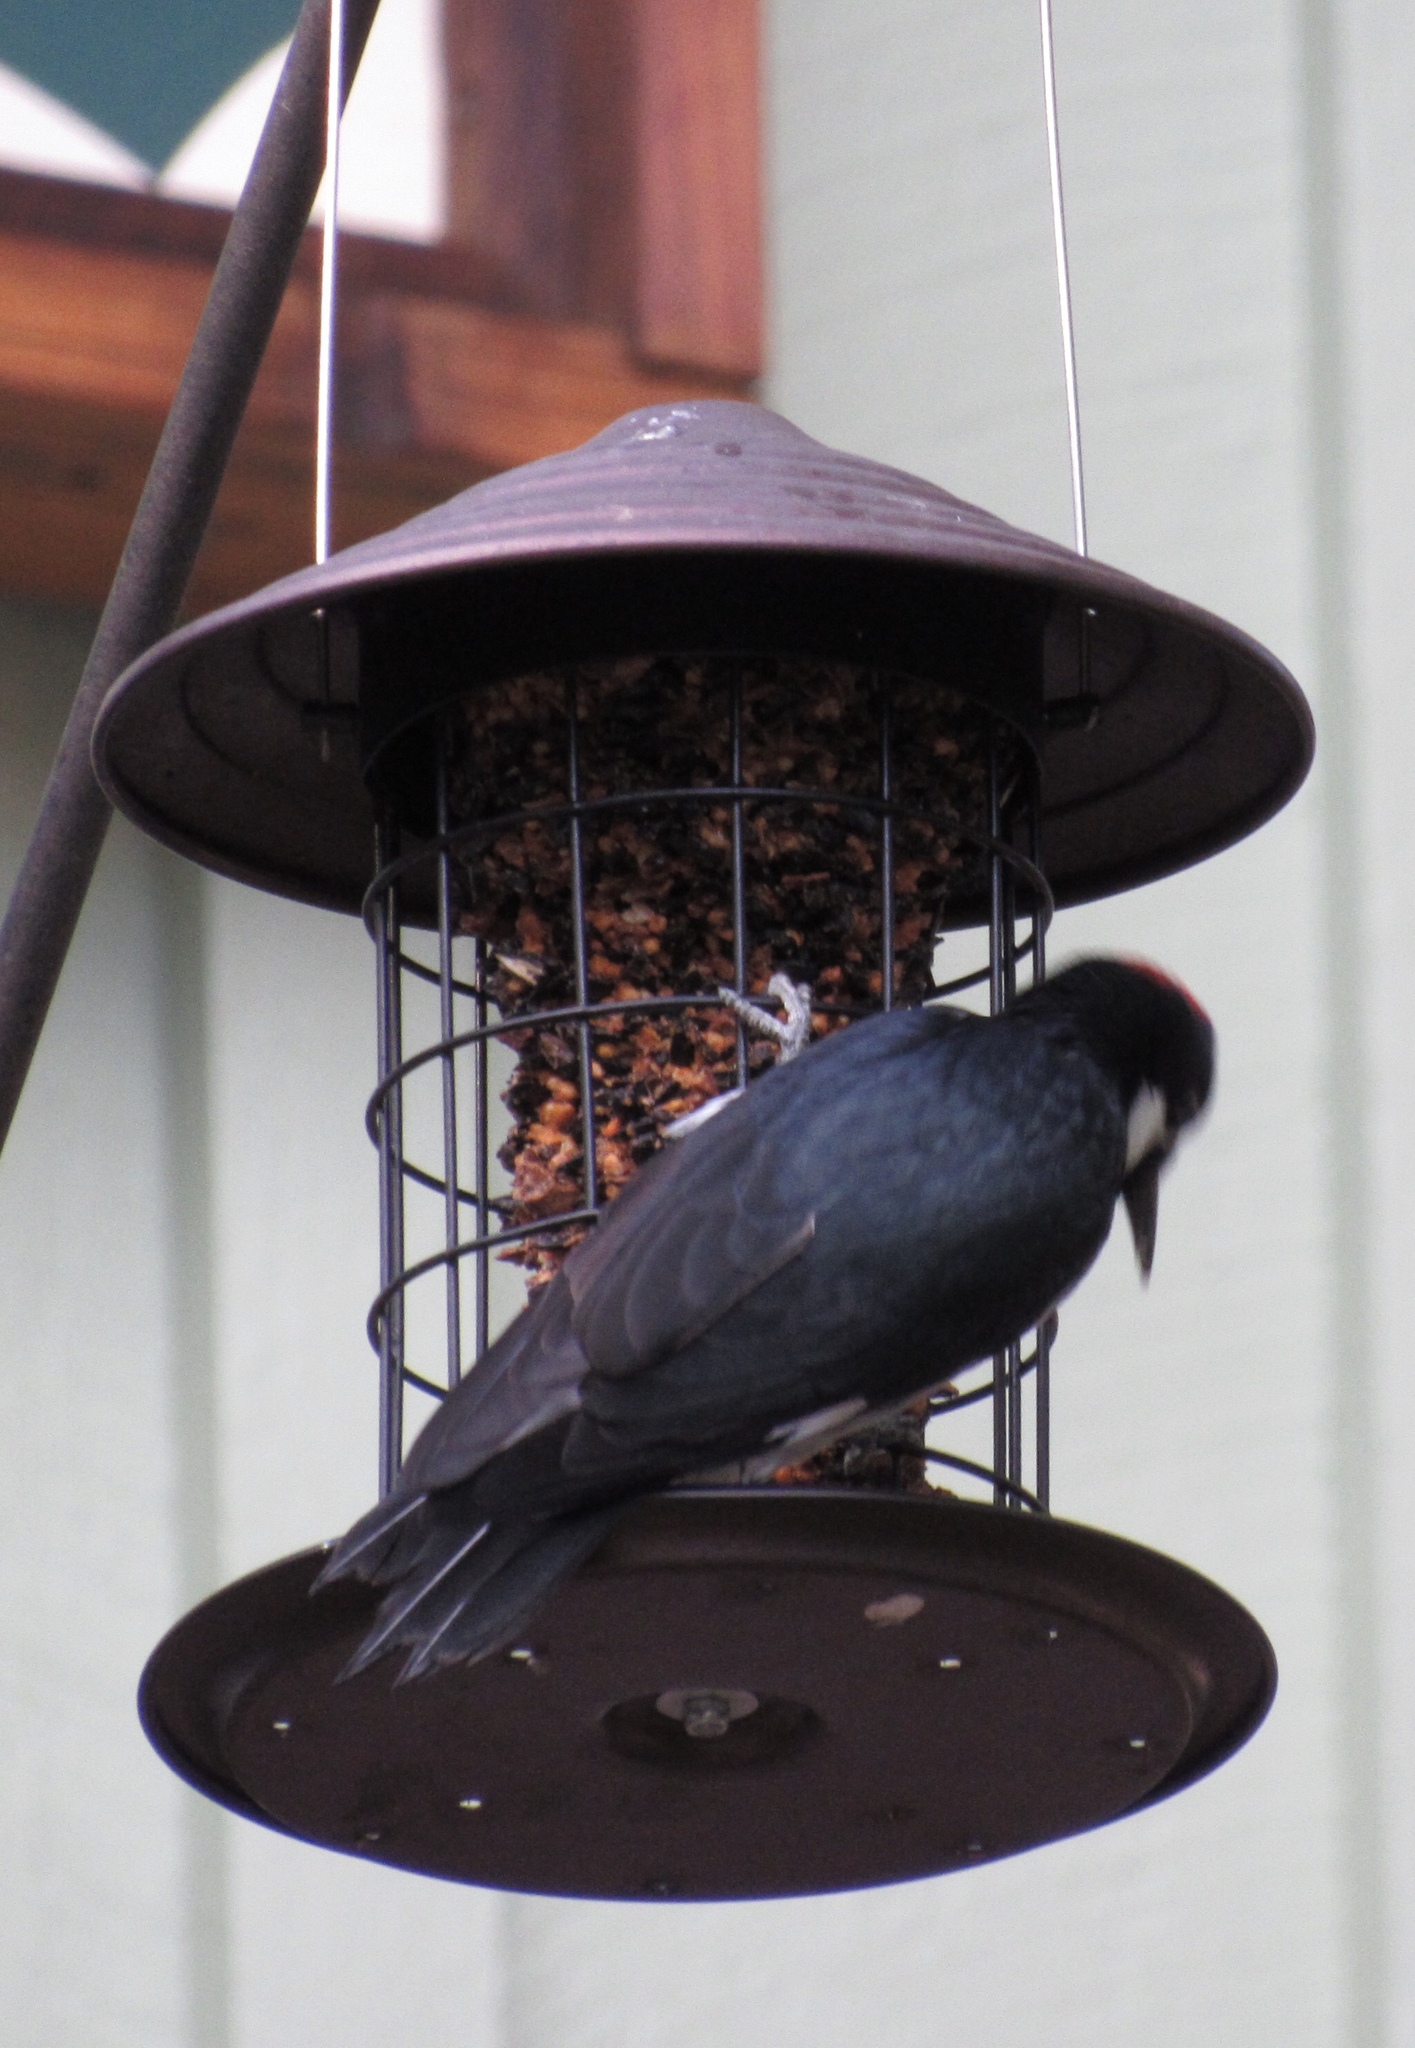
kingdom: Animalia
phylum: Chordata
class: Aves
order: Piciformes
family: Picidae
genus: Melanerpes
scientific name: Melanerpes formicivorus
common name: Acorn woodpecker
